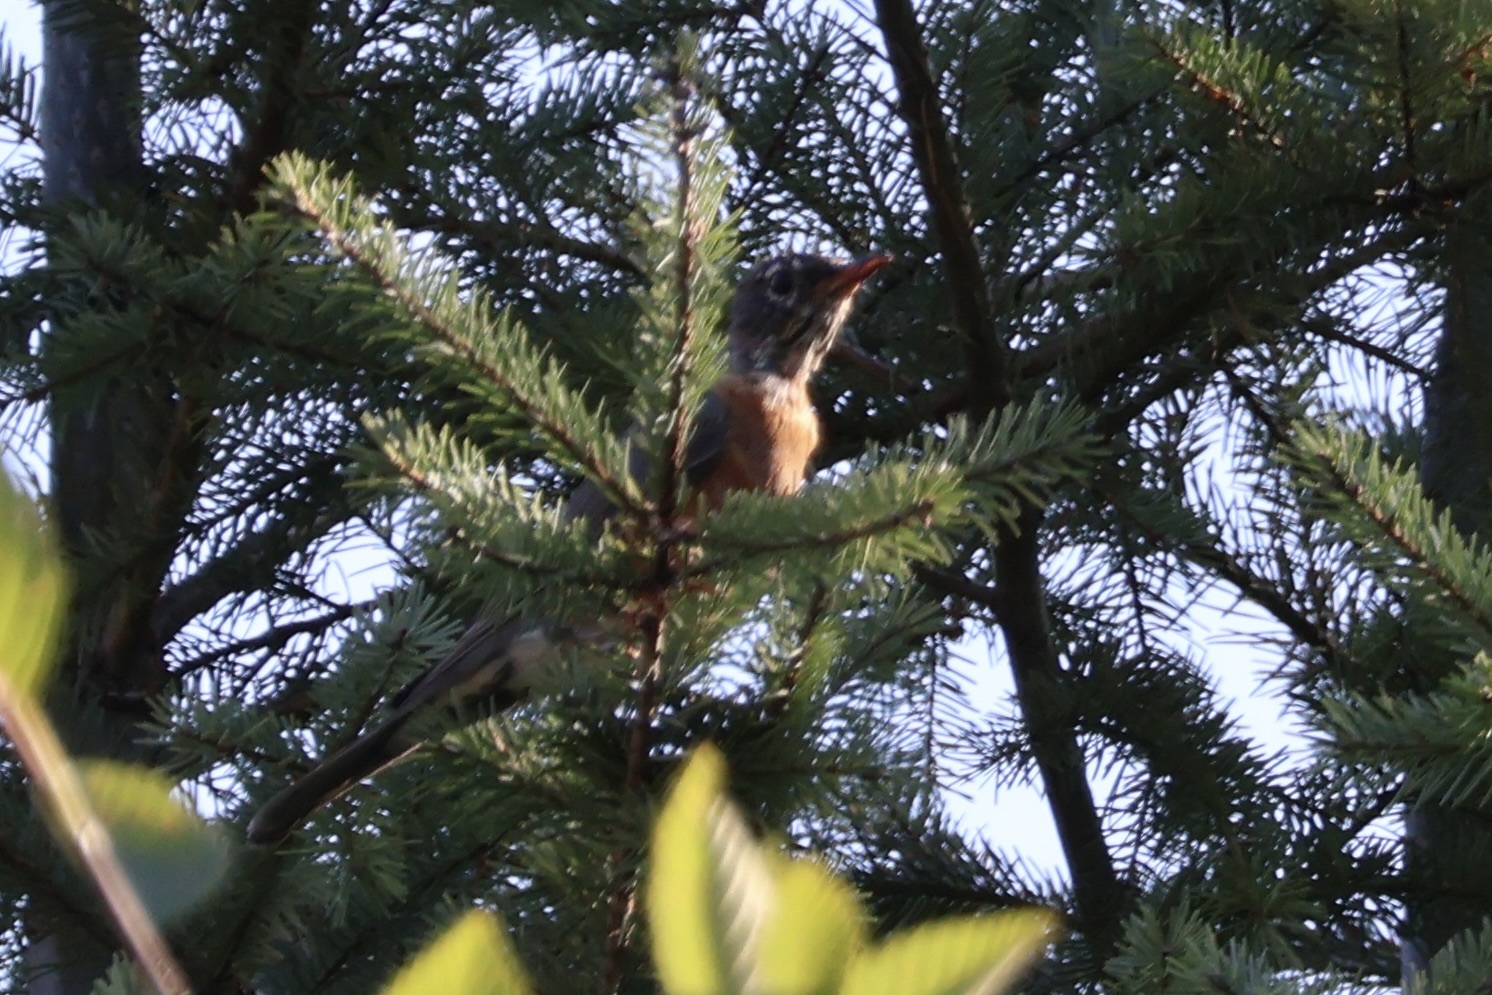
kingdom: Animalia
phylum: Chordata
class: Aves
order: Passeriformes
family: Turdidae
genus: Turdus
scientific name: Turdus migratorius
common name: American robin
